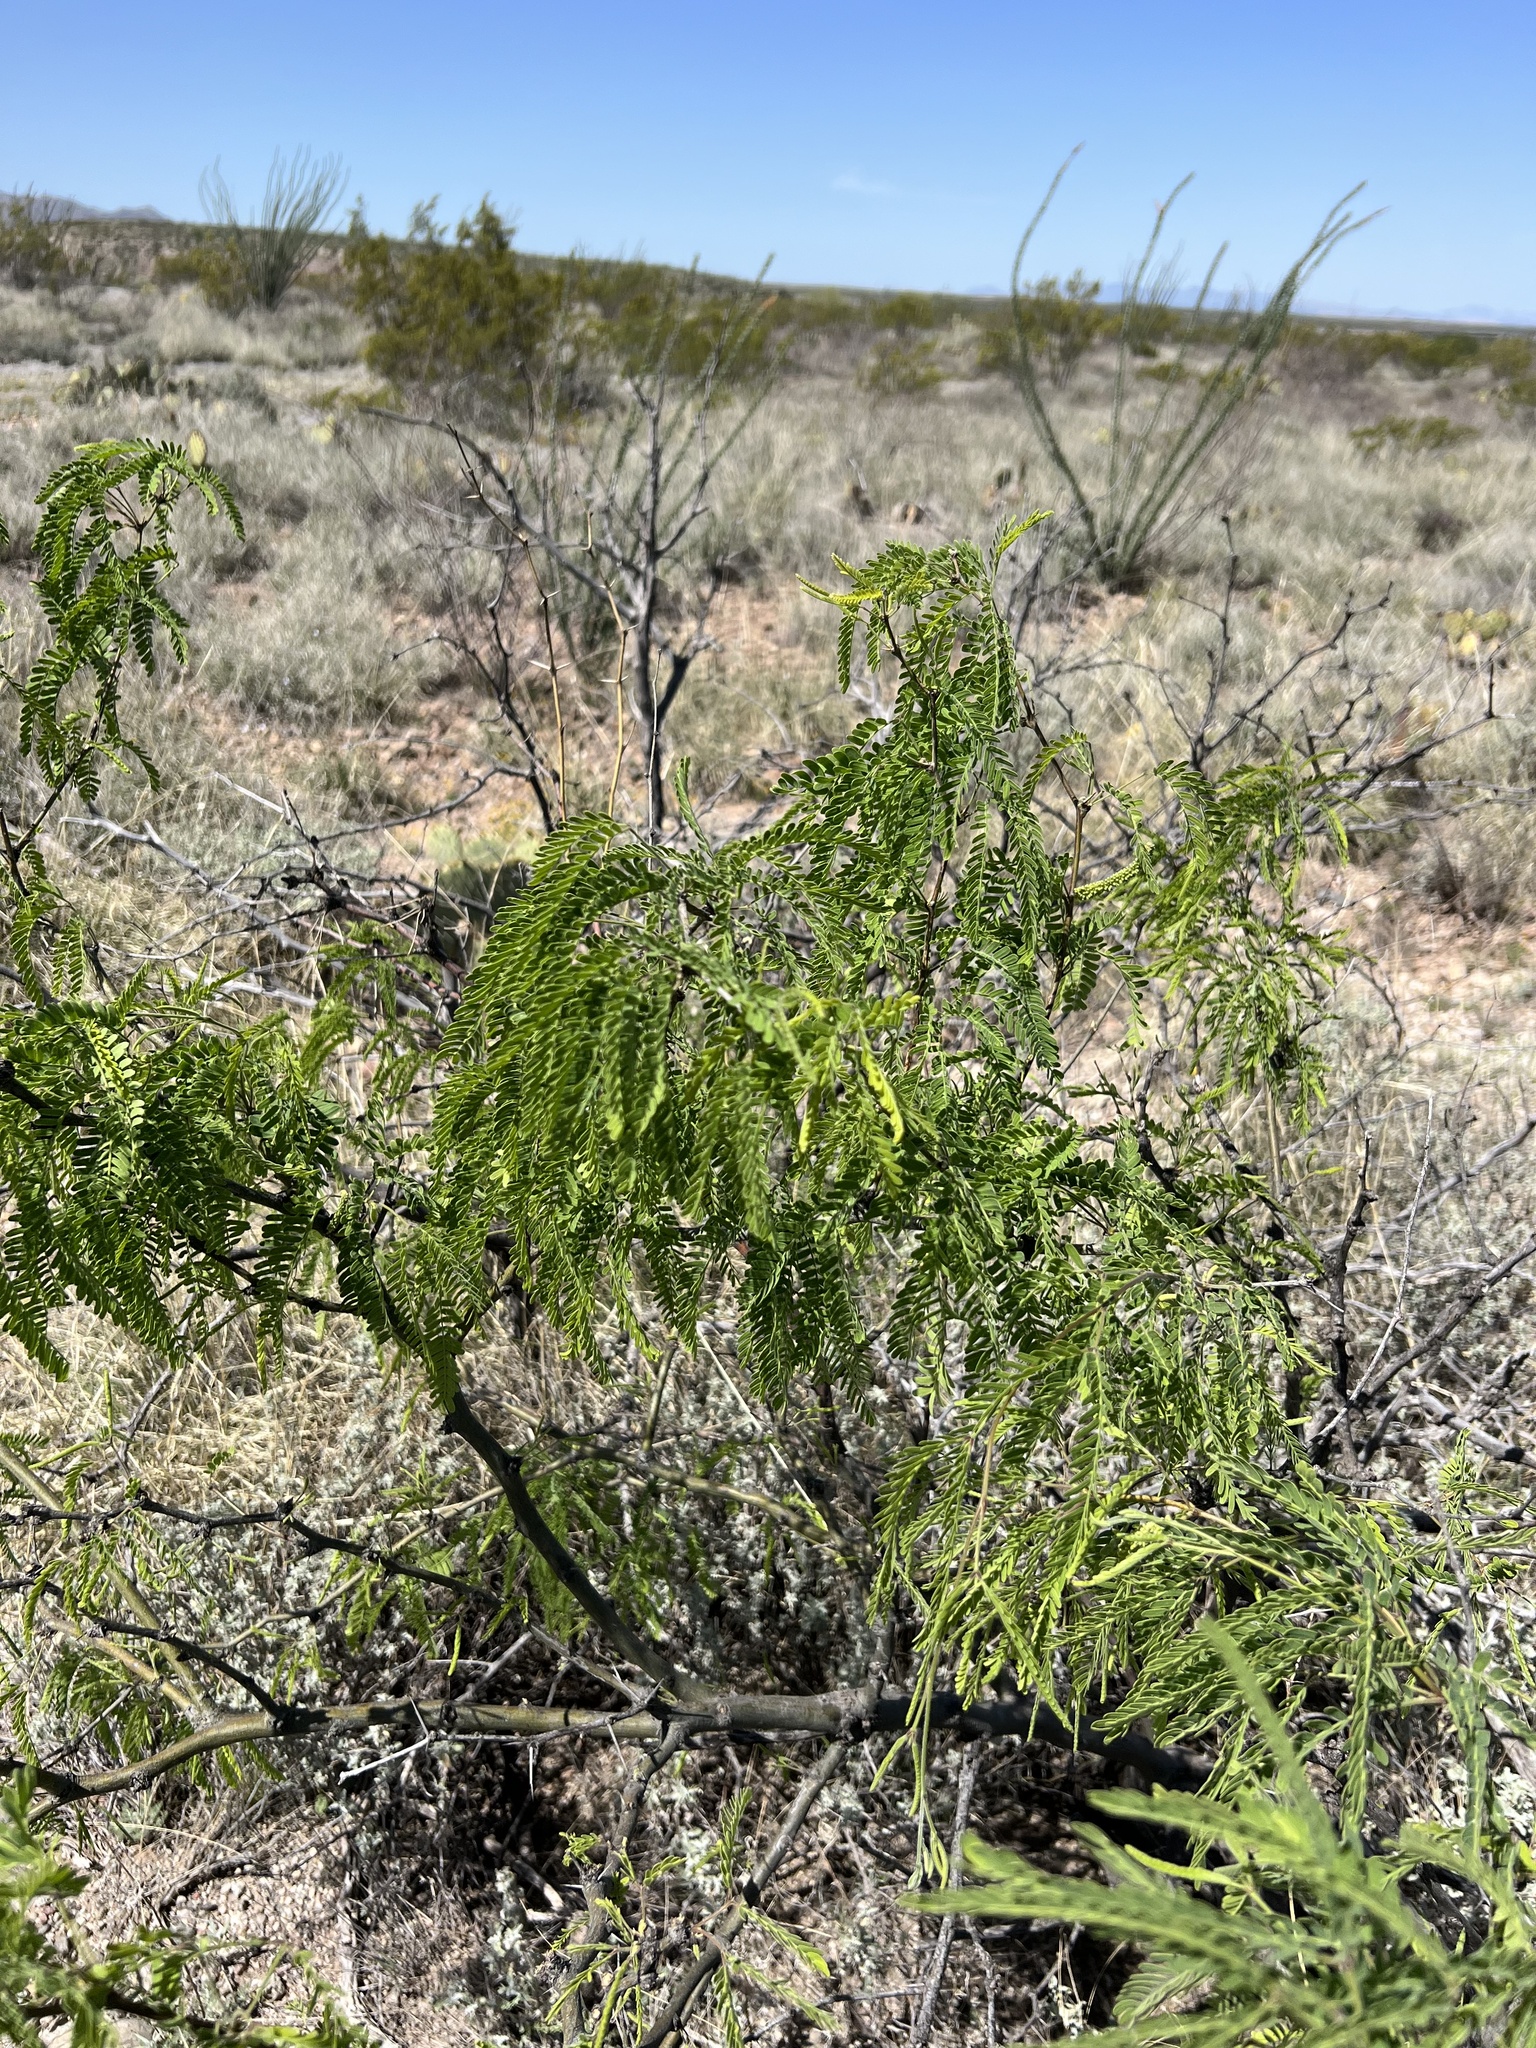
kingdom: Plantae
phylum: Tracheophyta
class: Magnoliopsida
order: Fabales
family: Fabaceae
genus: Prosopis
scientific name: Prosopis pubescens
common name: Screw-bean
